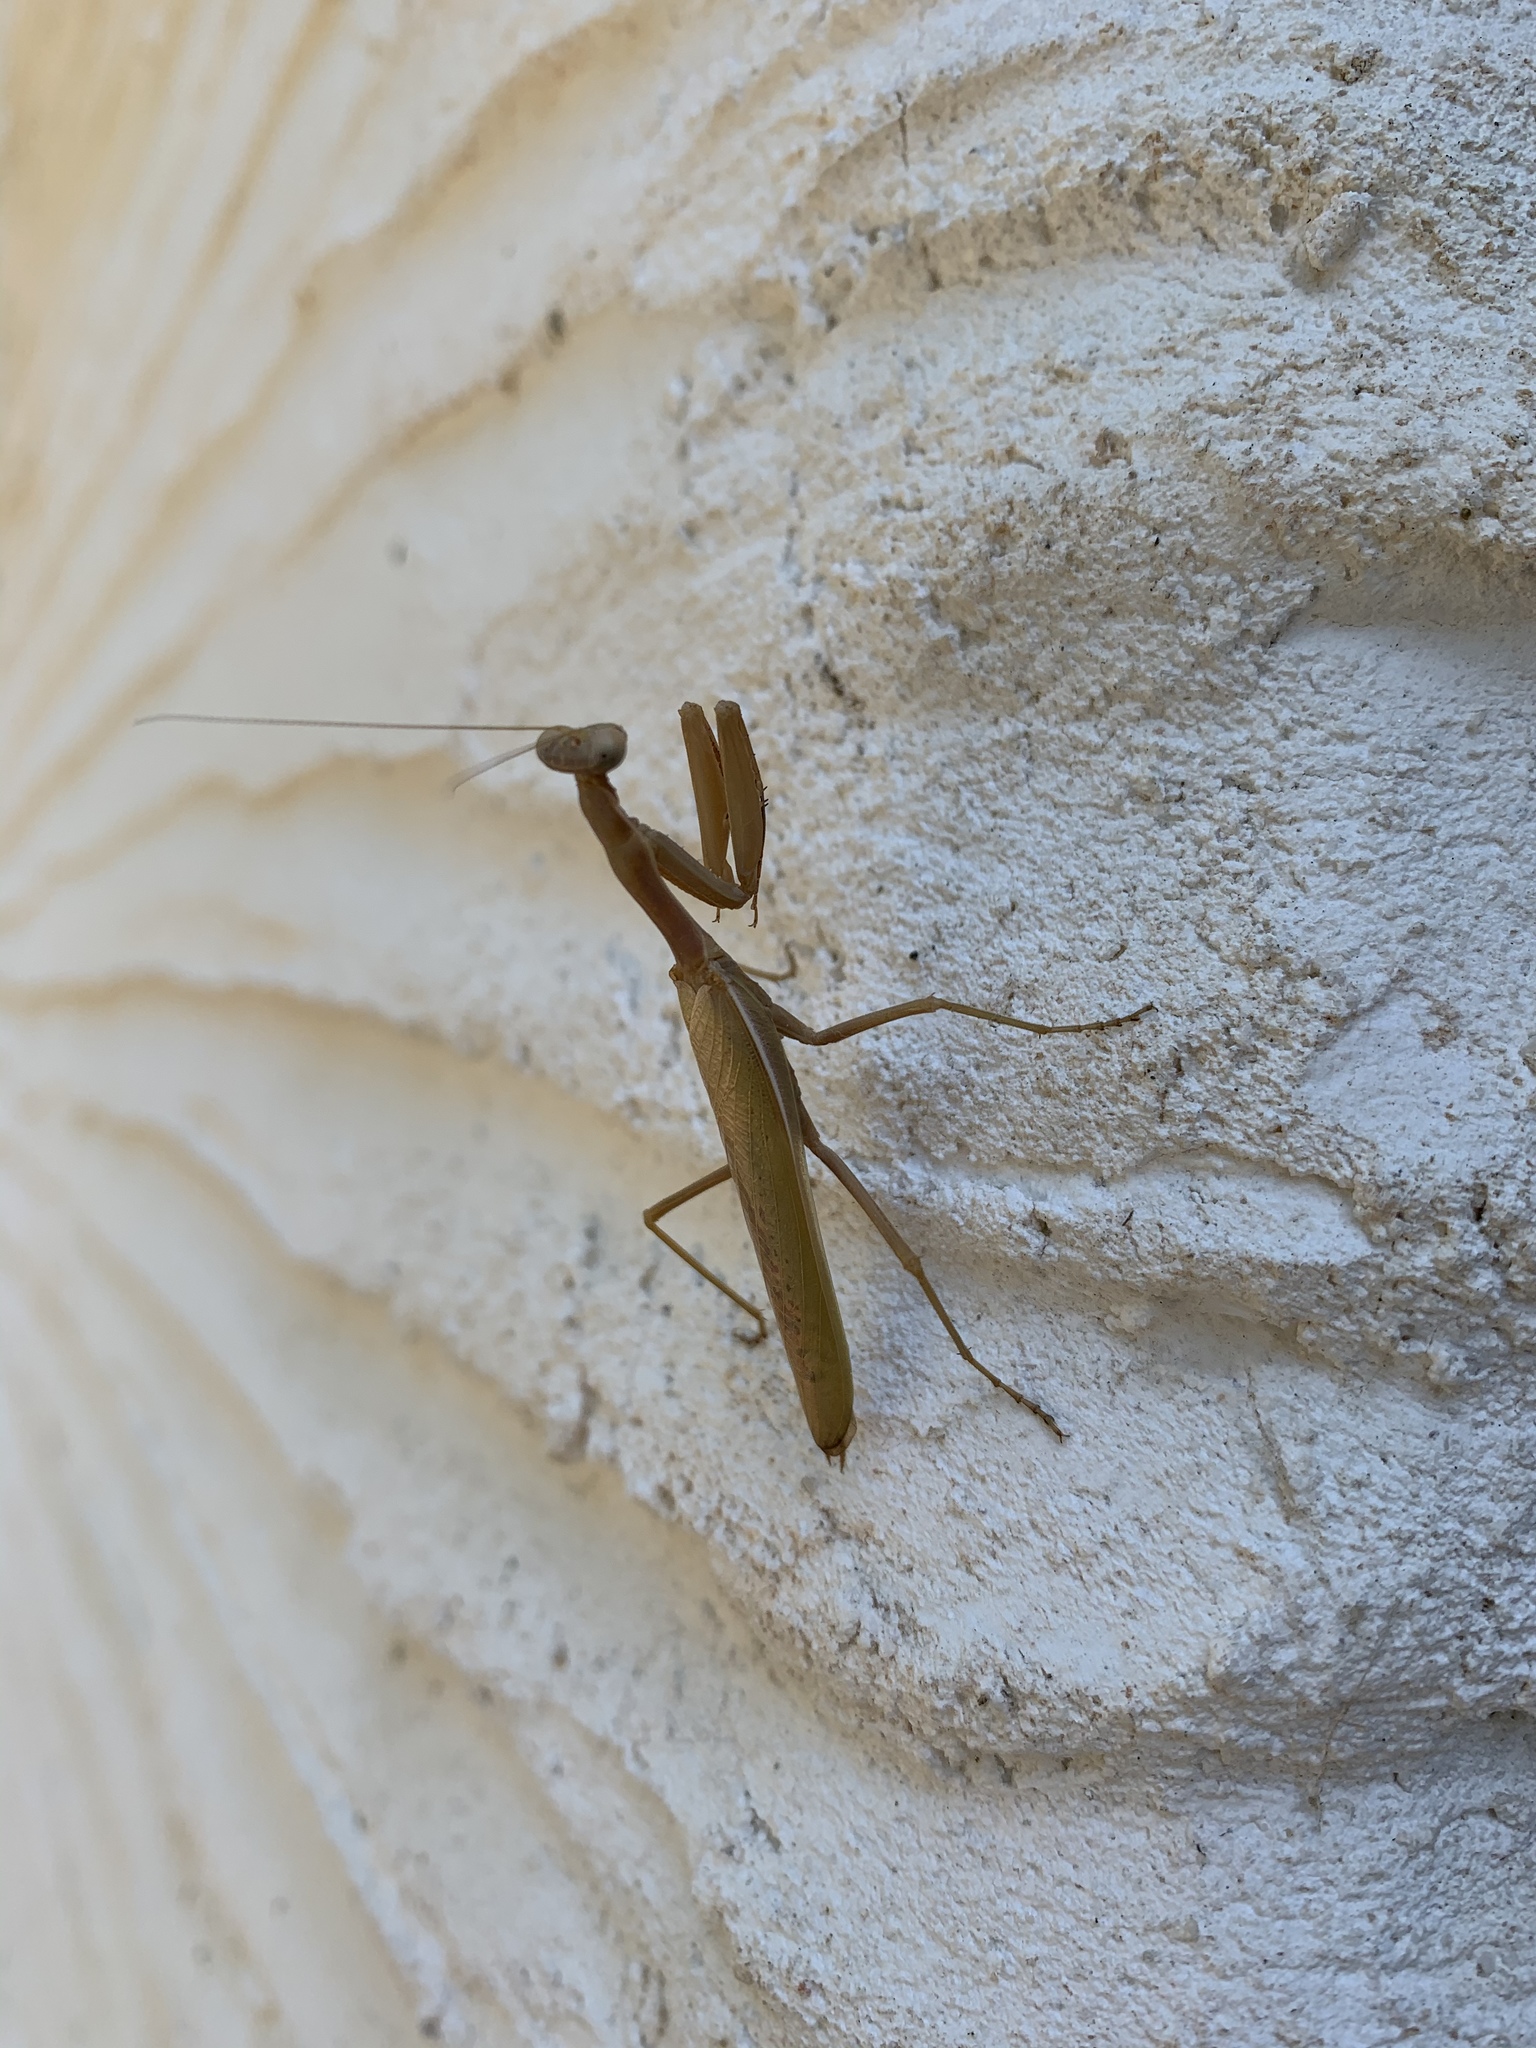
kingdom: Animalia
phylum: Arthropoda
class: Insecta
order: Mantodea
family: Eremiaphilidae
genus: Iris
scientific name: Iris oratoria
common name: Mediterranean mantis
